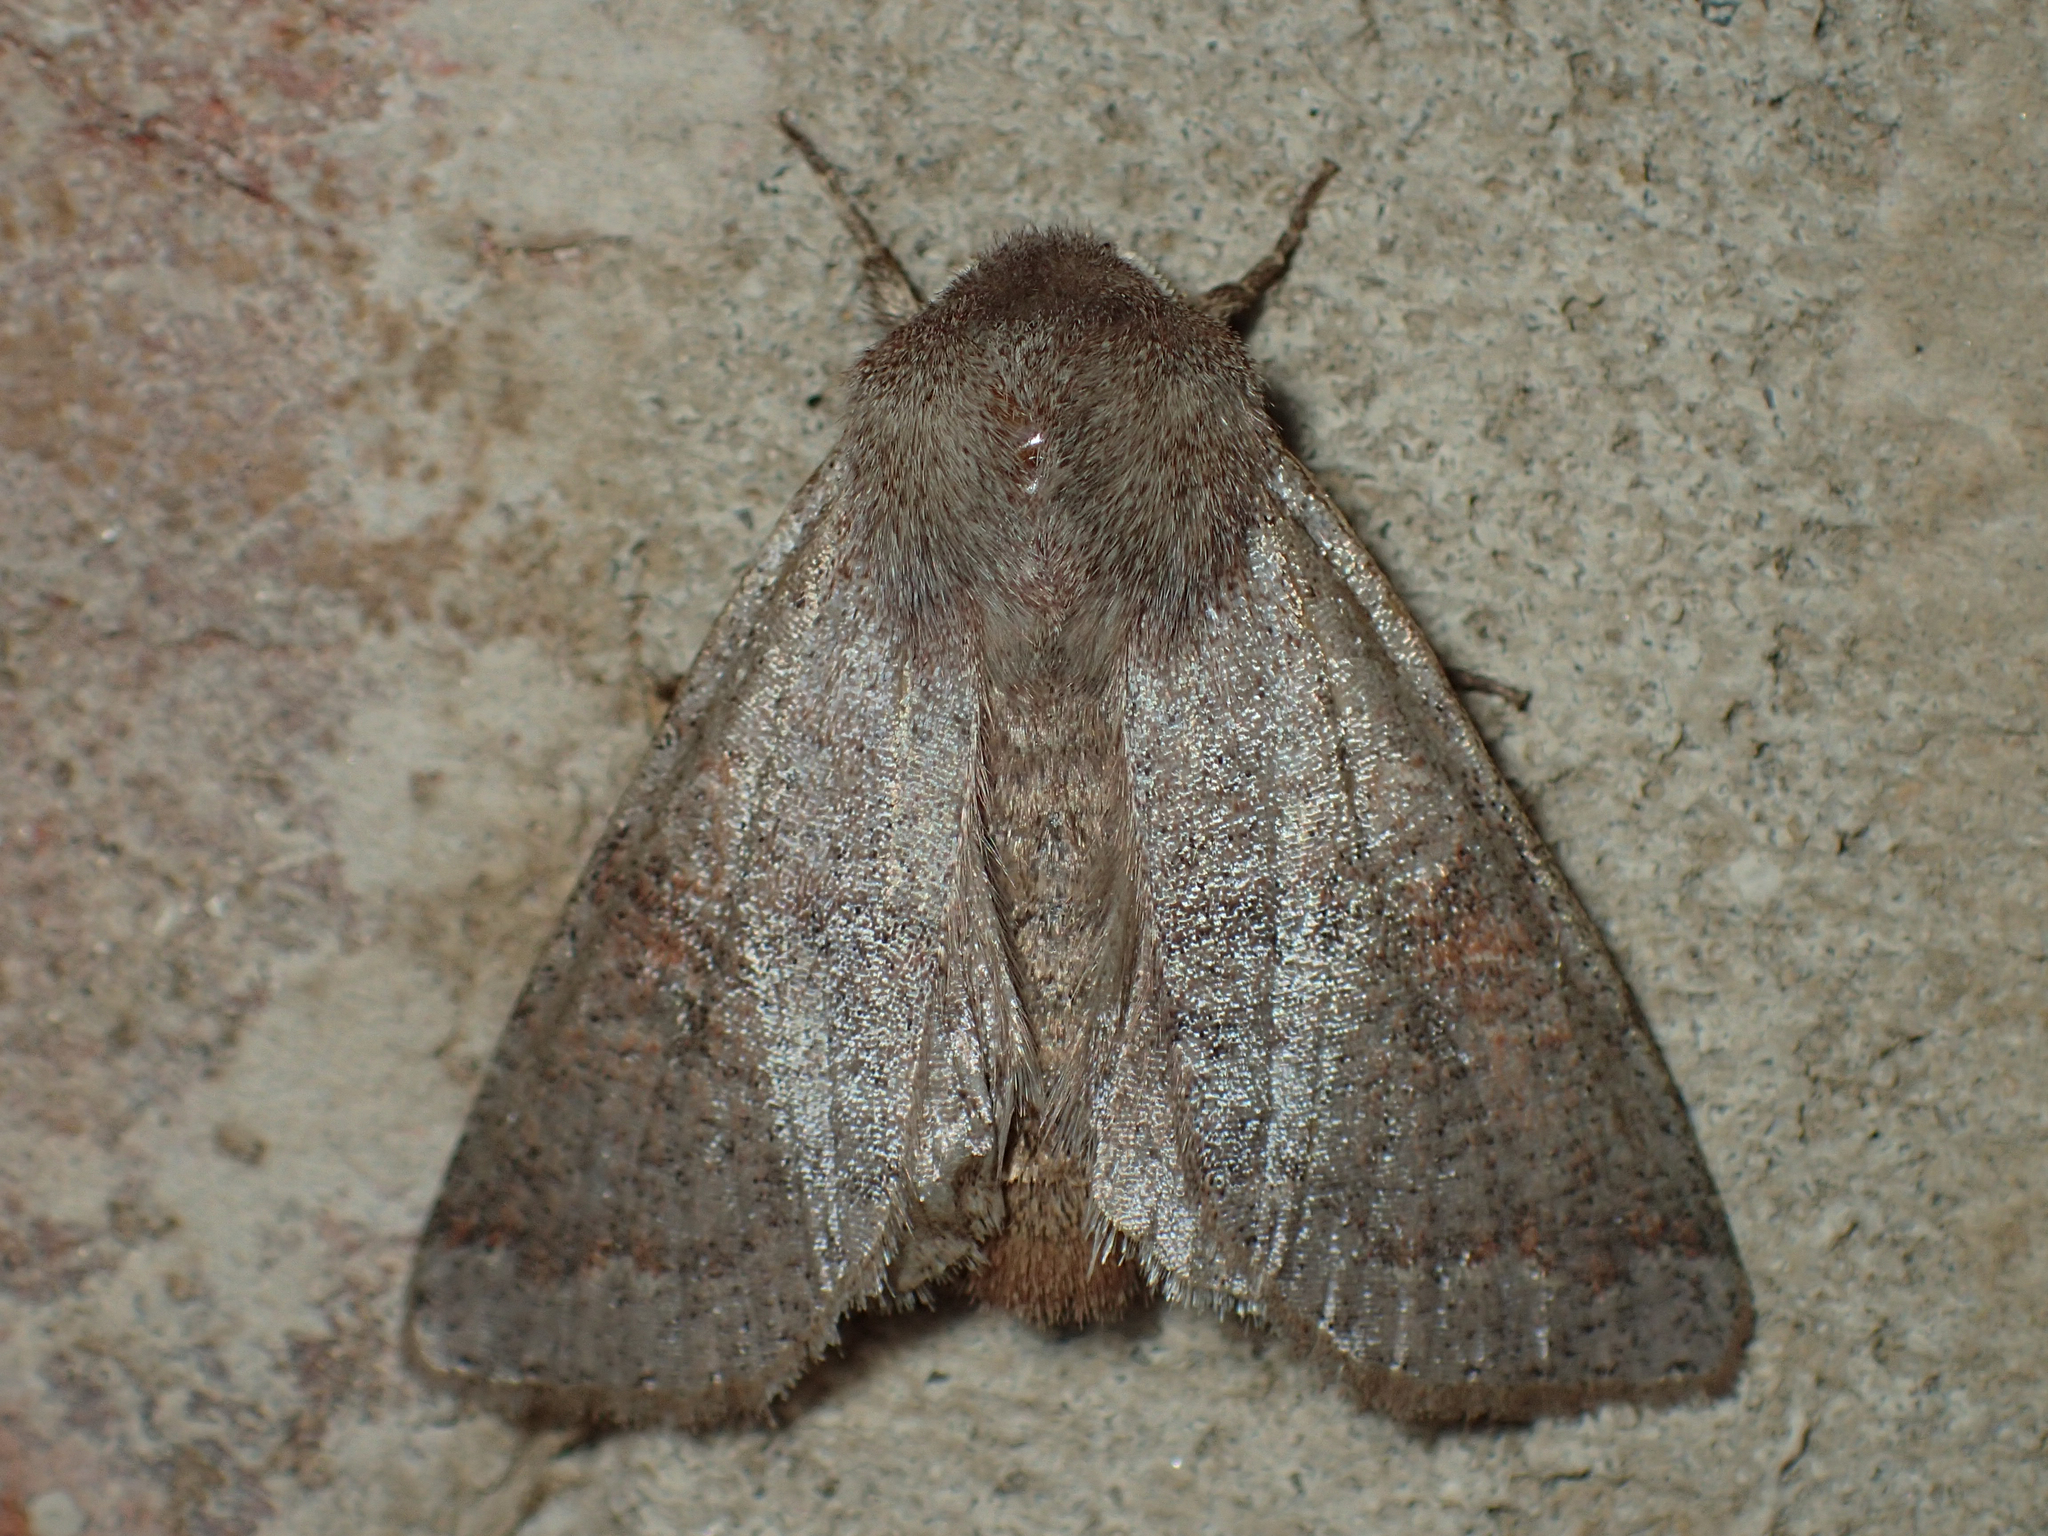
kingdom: Animalia
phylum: Arthropoda
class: Insecta
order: Lepidoptera
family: Noctuidae
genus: Orthosia
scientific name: Orthosia hibisci
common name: Green fruitworm
